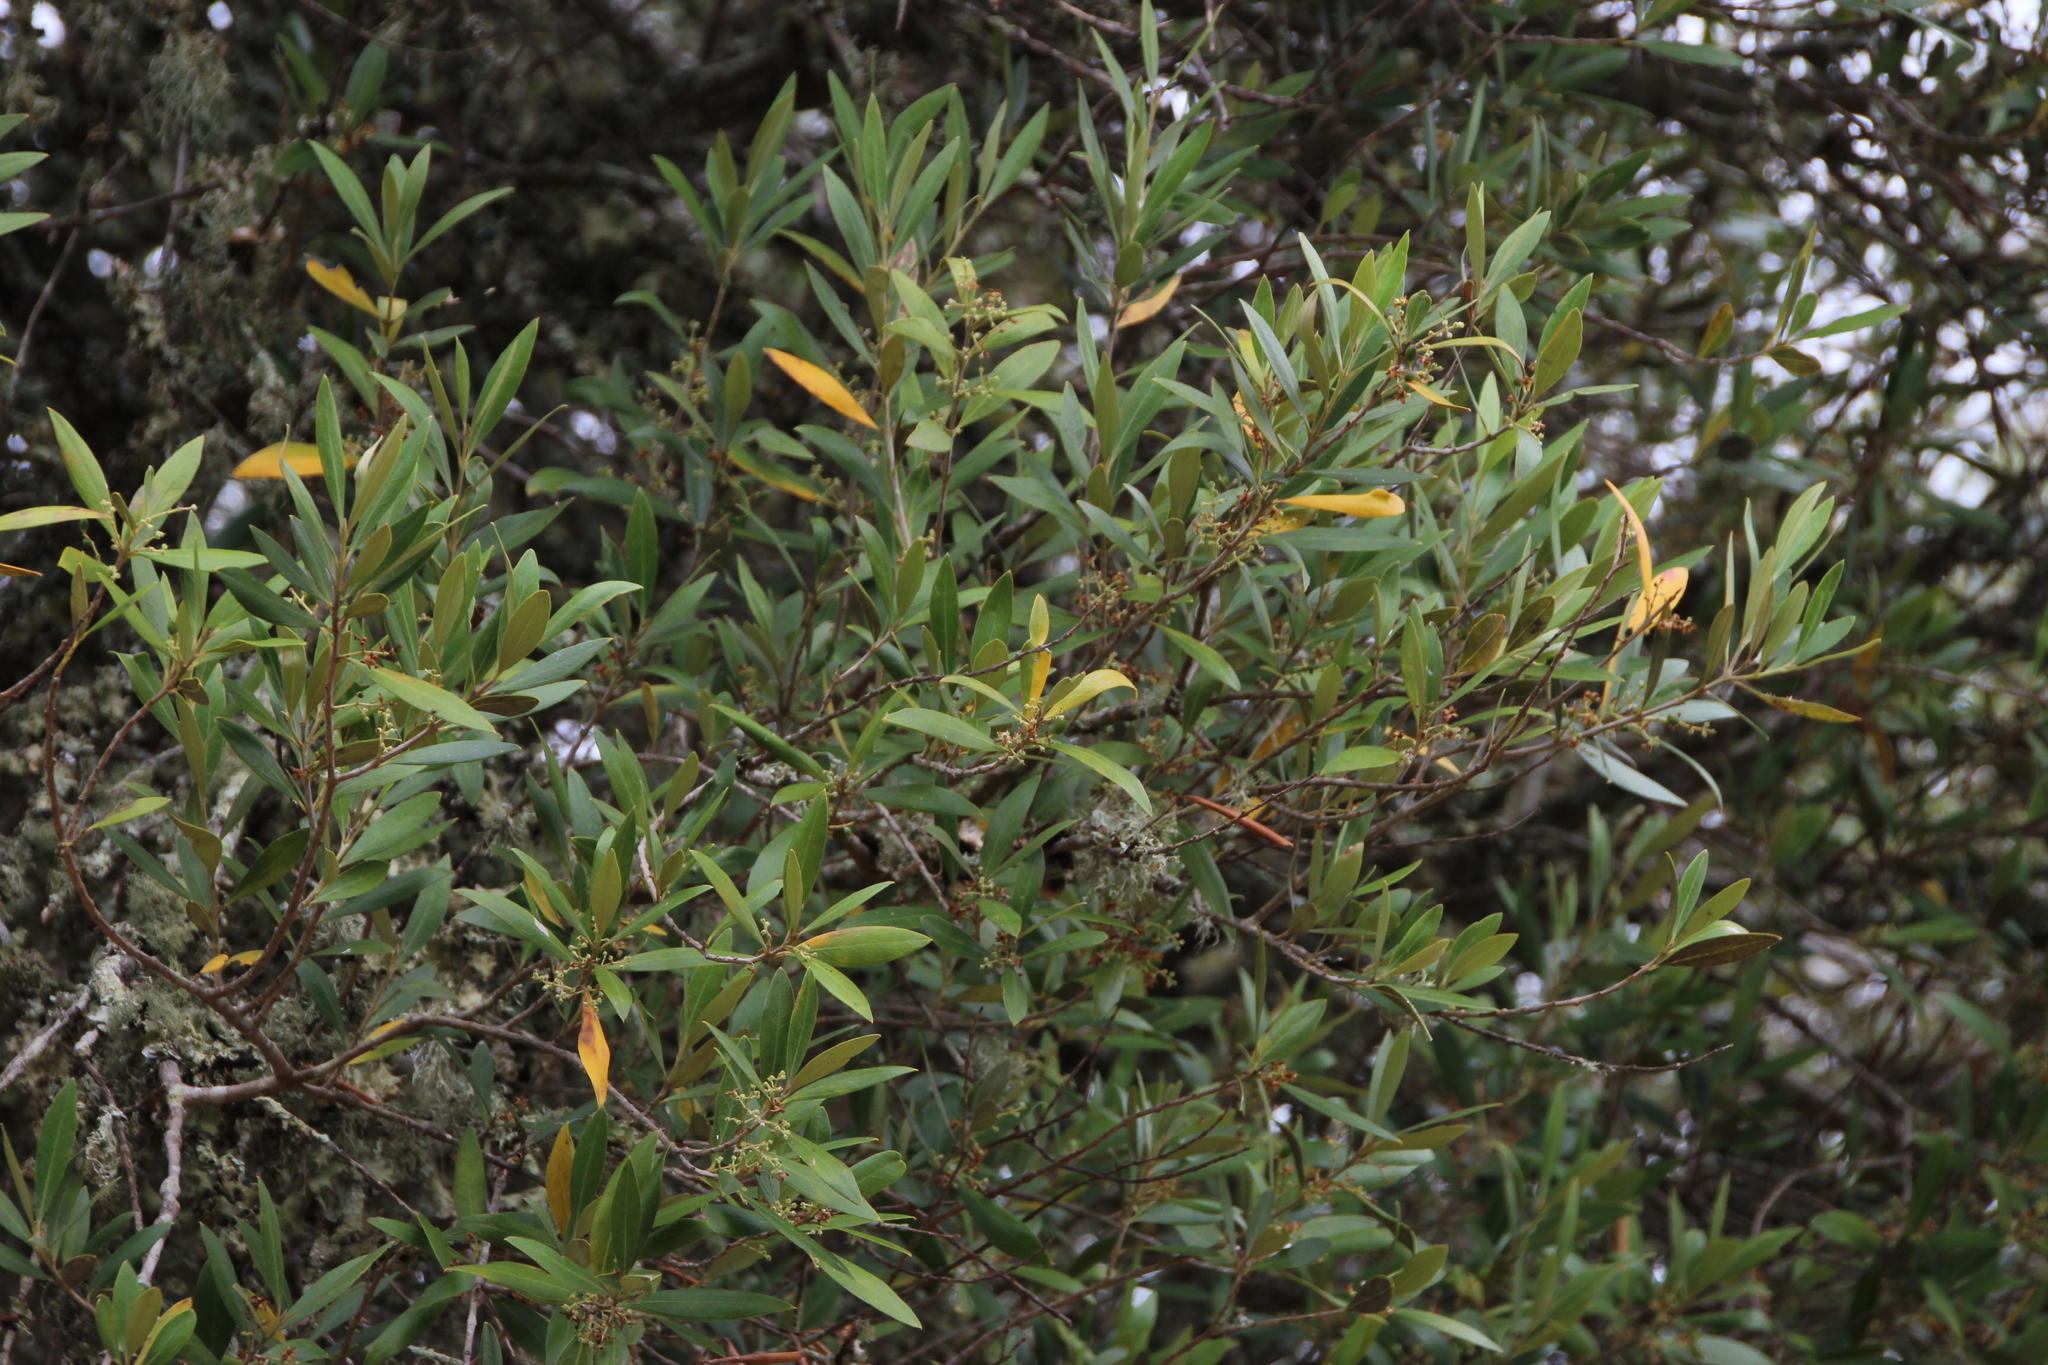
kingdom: Plantae
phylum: Tracheophyta
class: Magnoliopsida
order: Lamiales
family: Oleaceae
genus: Olea
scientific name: Olea europaea
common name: Olive
